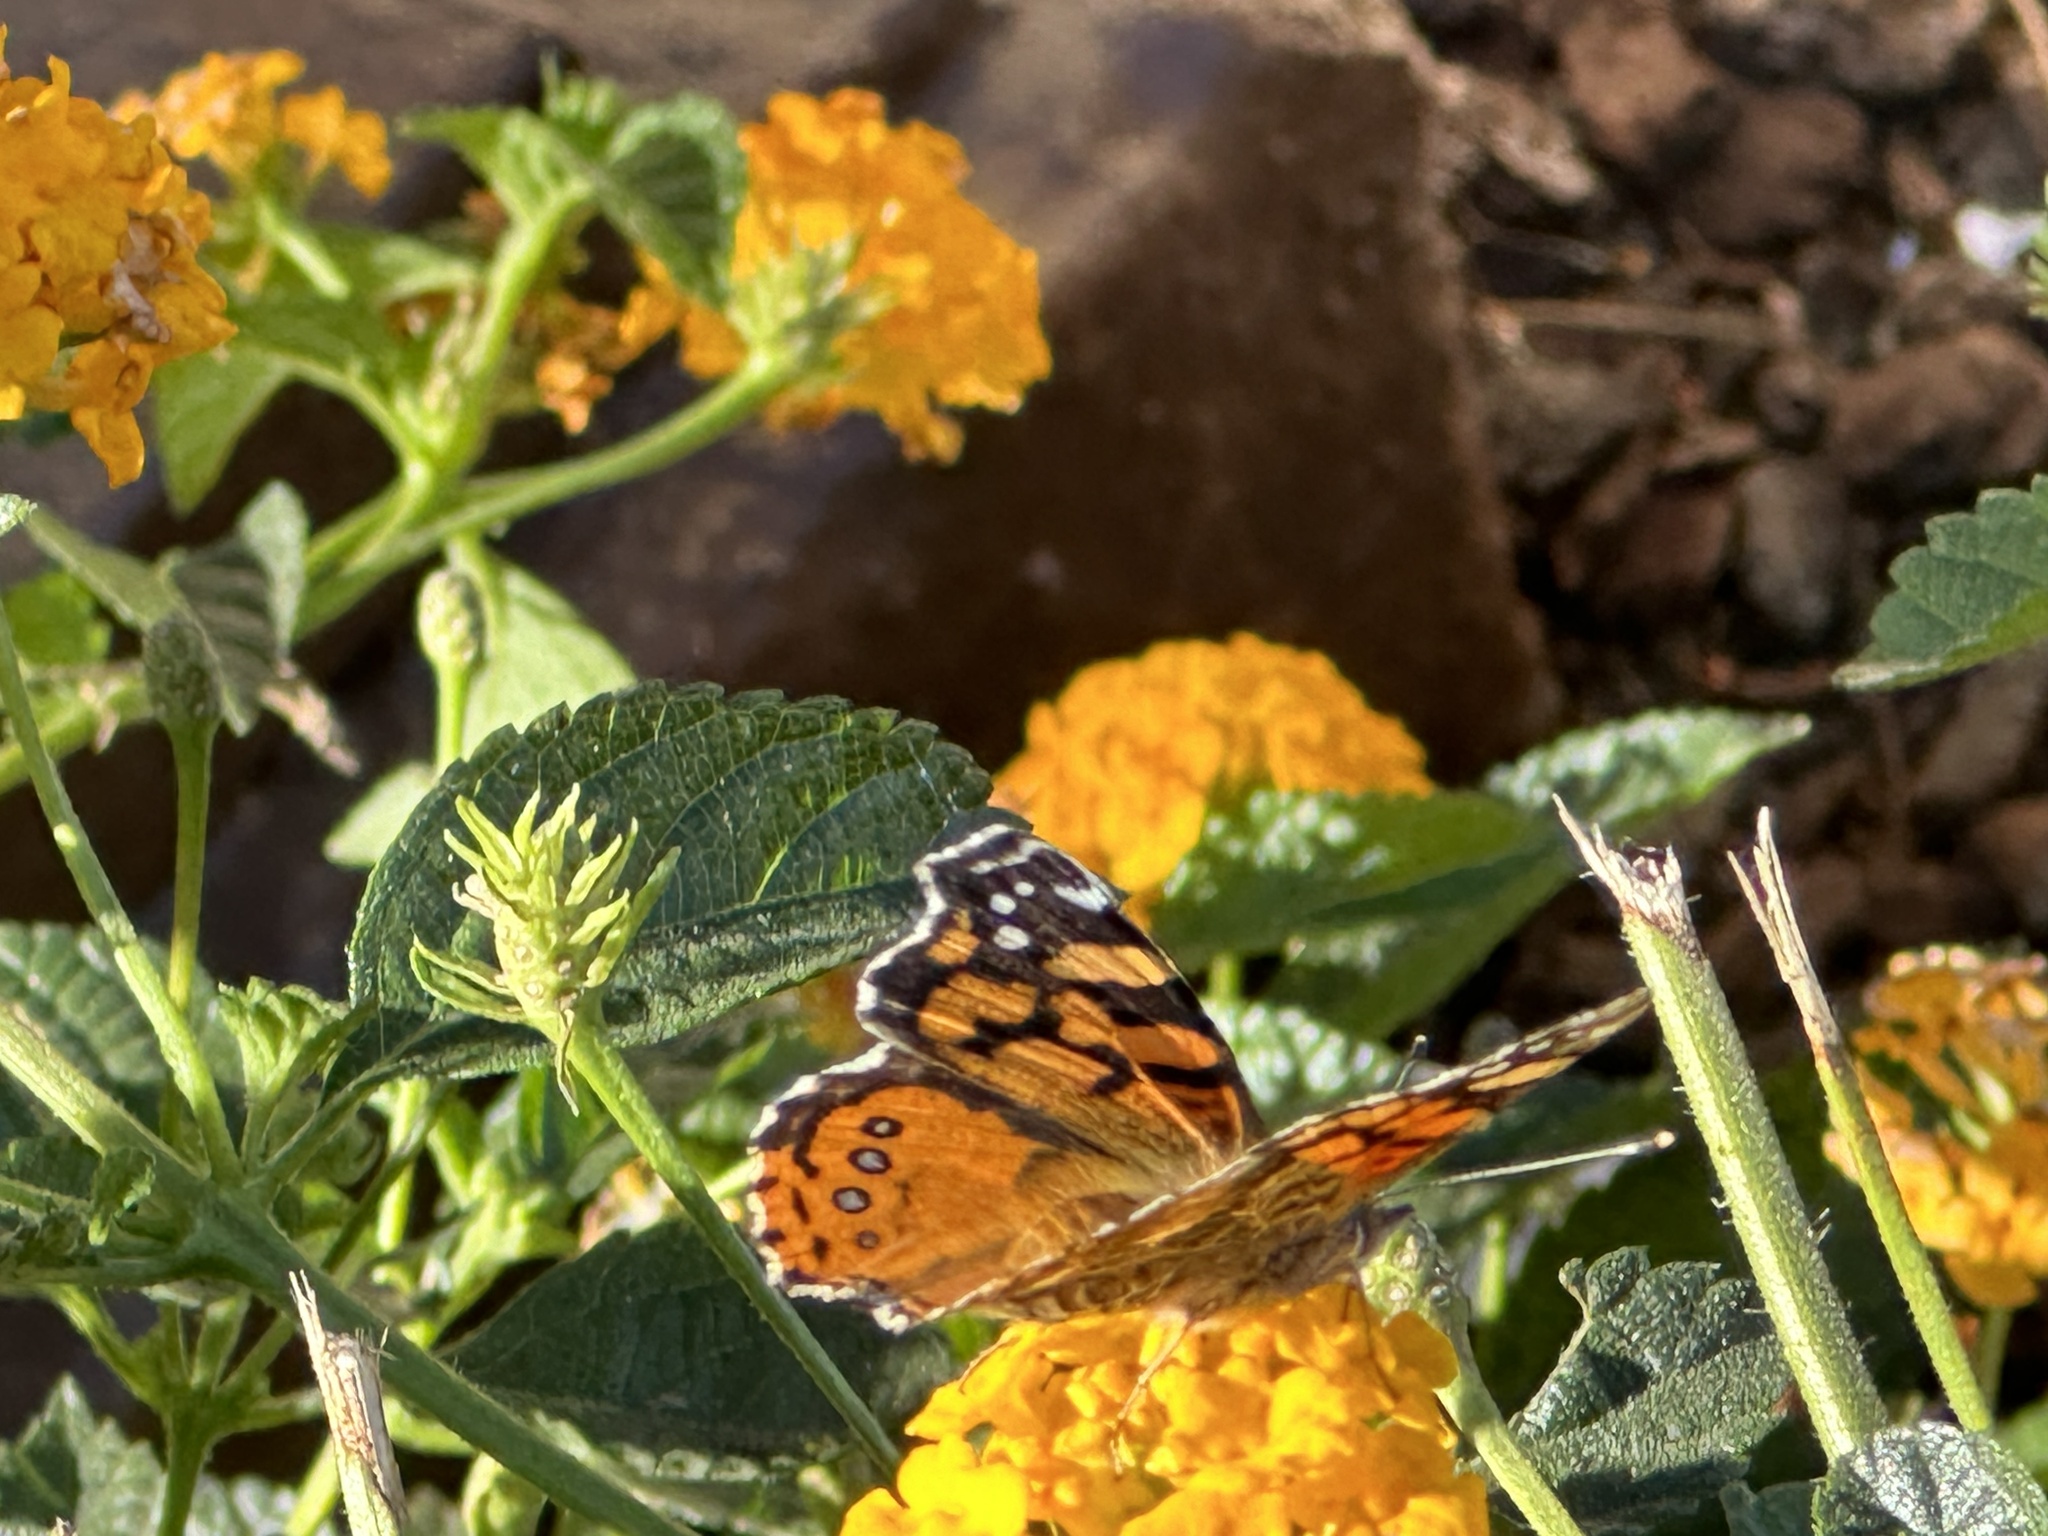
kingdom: Animalia
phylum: Arthropoda
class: Insecta
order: Lepidoptera
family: Nymphalidae
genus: Vanessa
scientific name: Vanessa annabella
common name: West coast lady
